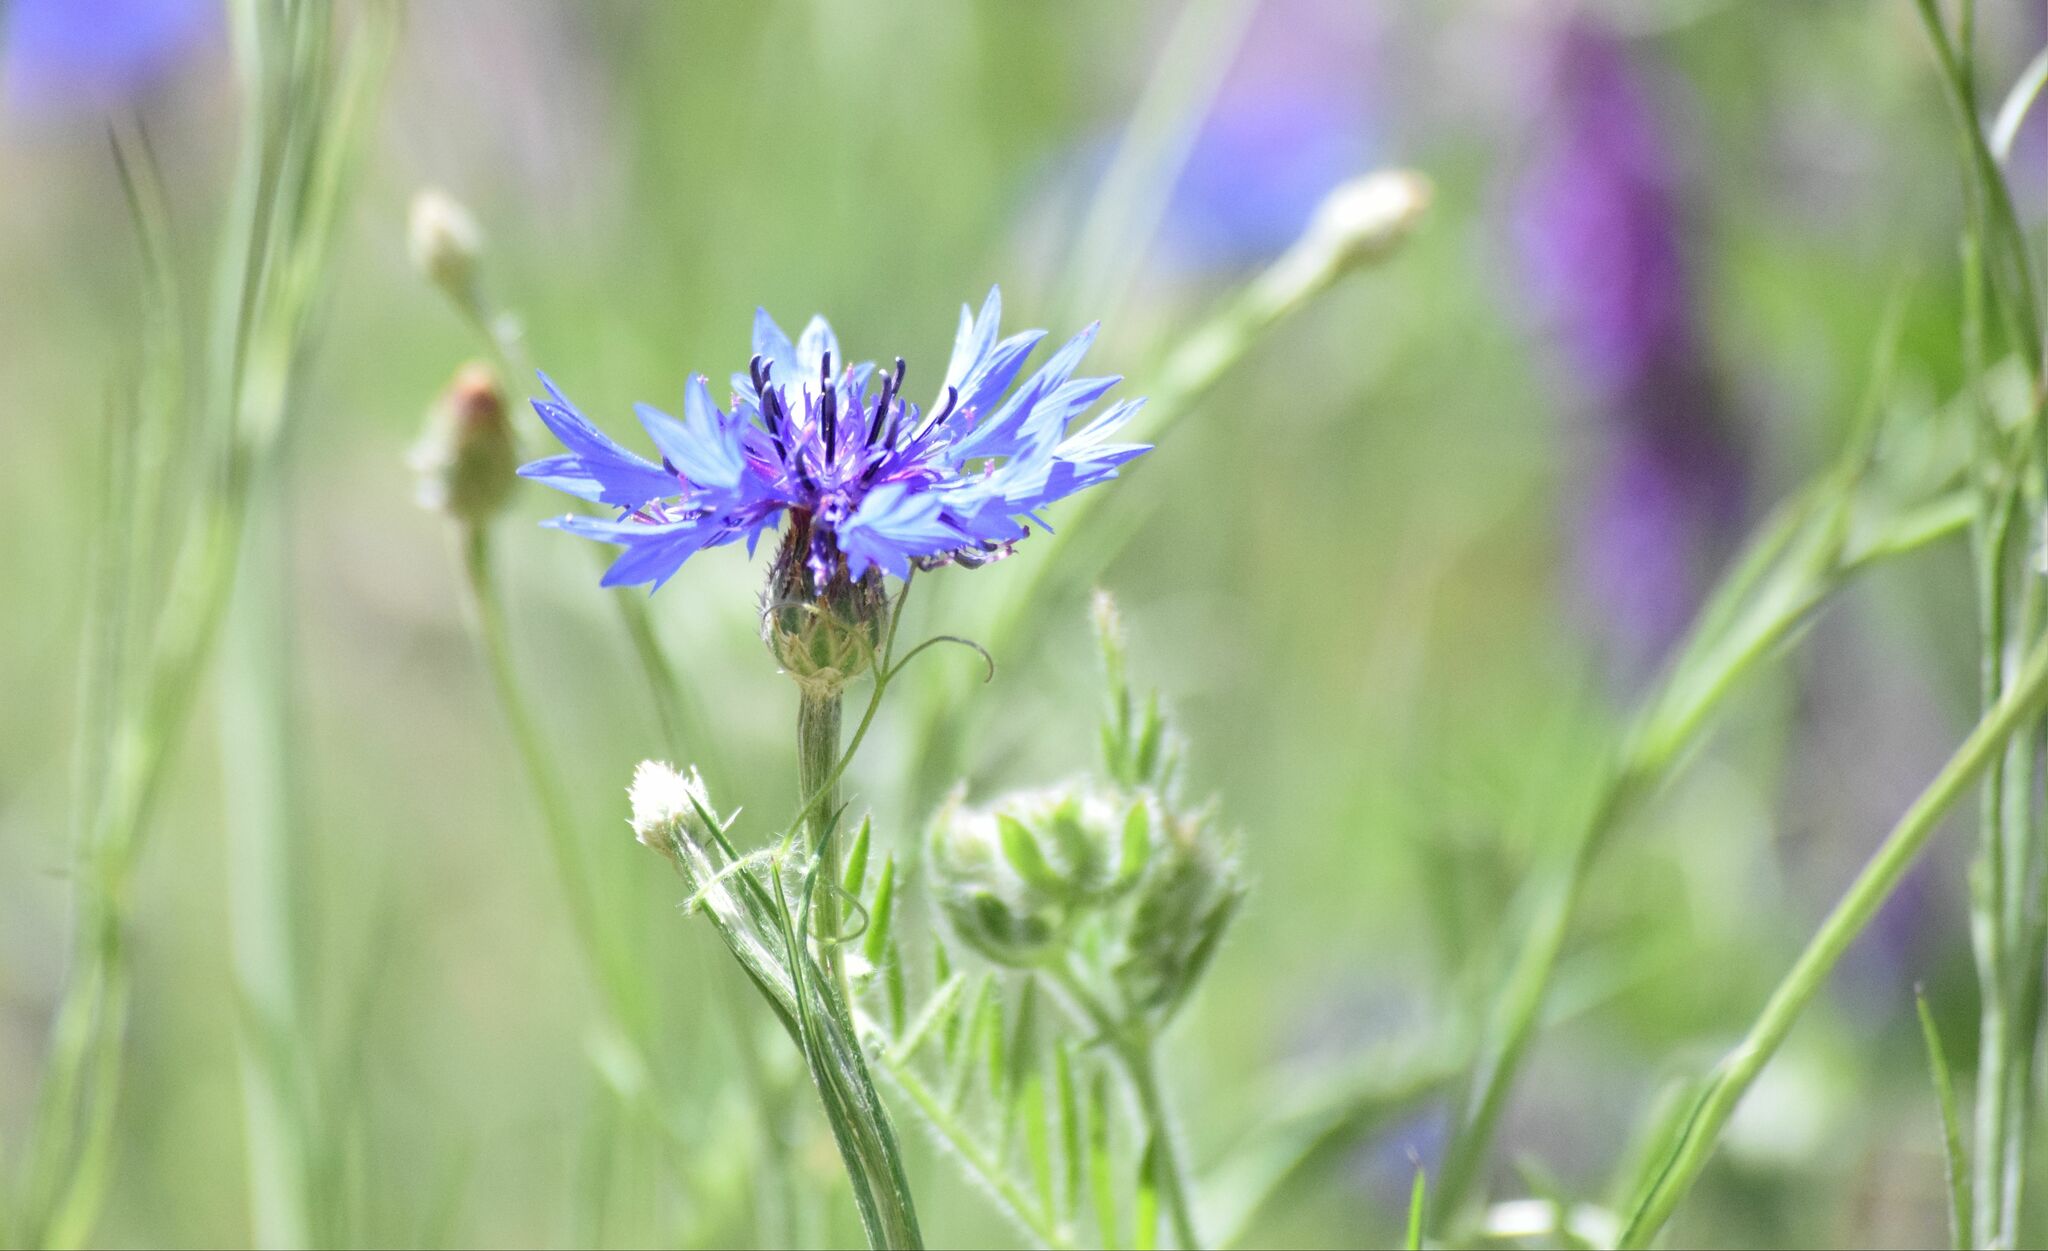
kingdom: Plantae
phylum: Tracheophyta
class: Magnoliopsida
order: Asterales
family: Asteraceae
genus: Centaurea
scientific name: Centaurea cyanus
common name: Cornflower
